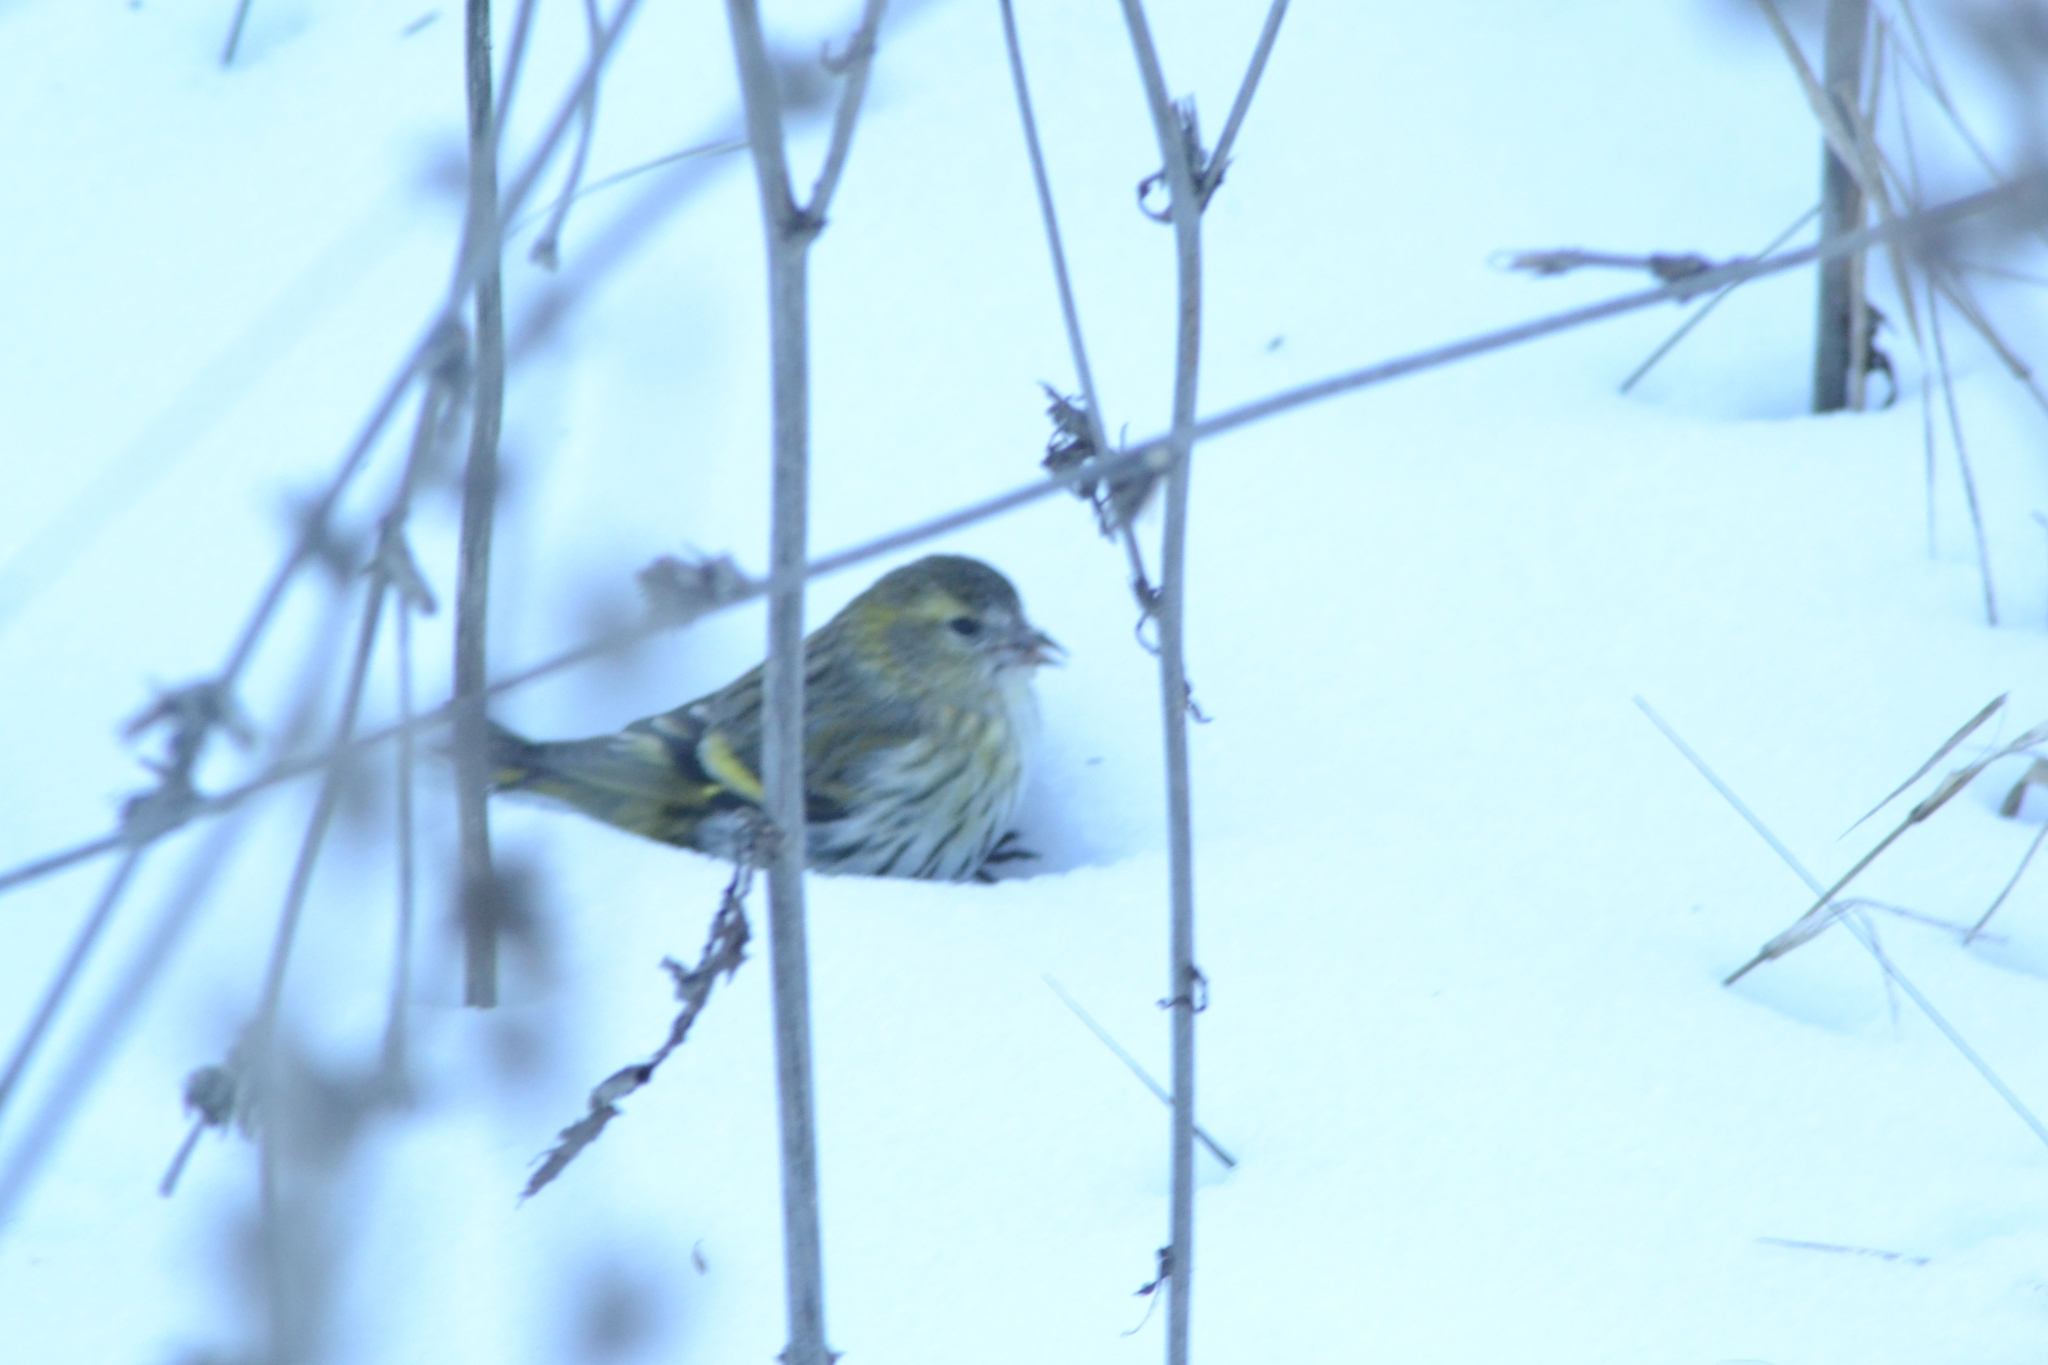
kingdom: Animalia
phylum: Chordata
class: Aves
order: Passeriformes
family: Fringillidae
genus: Spinus
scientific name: Spinus spinus
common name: Eurasian siskin
